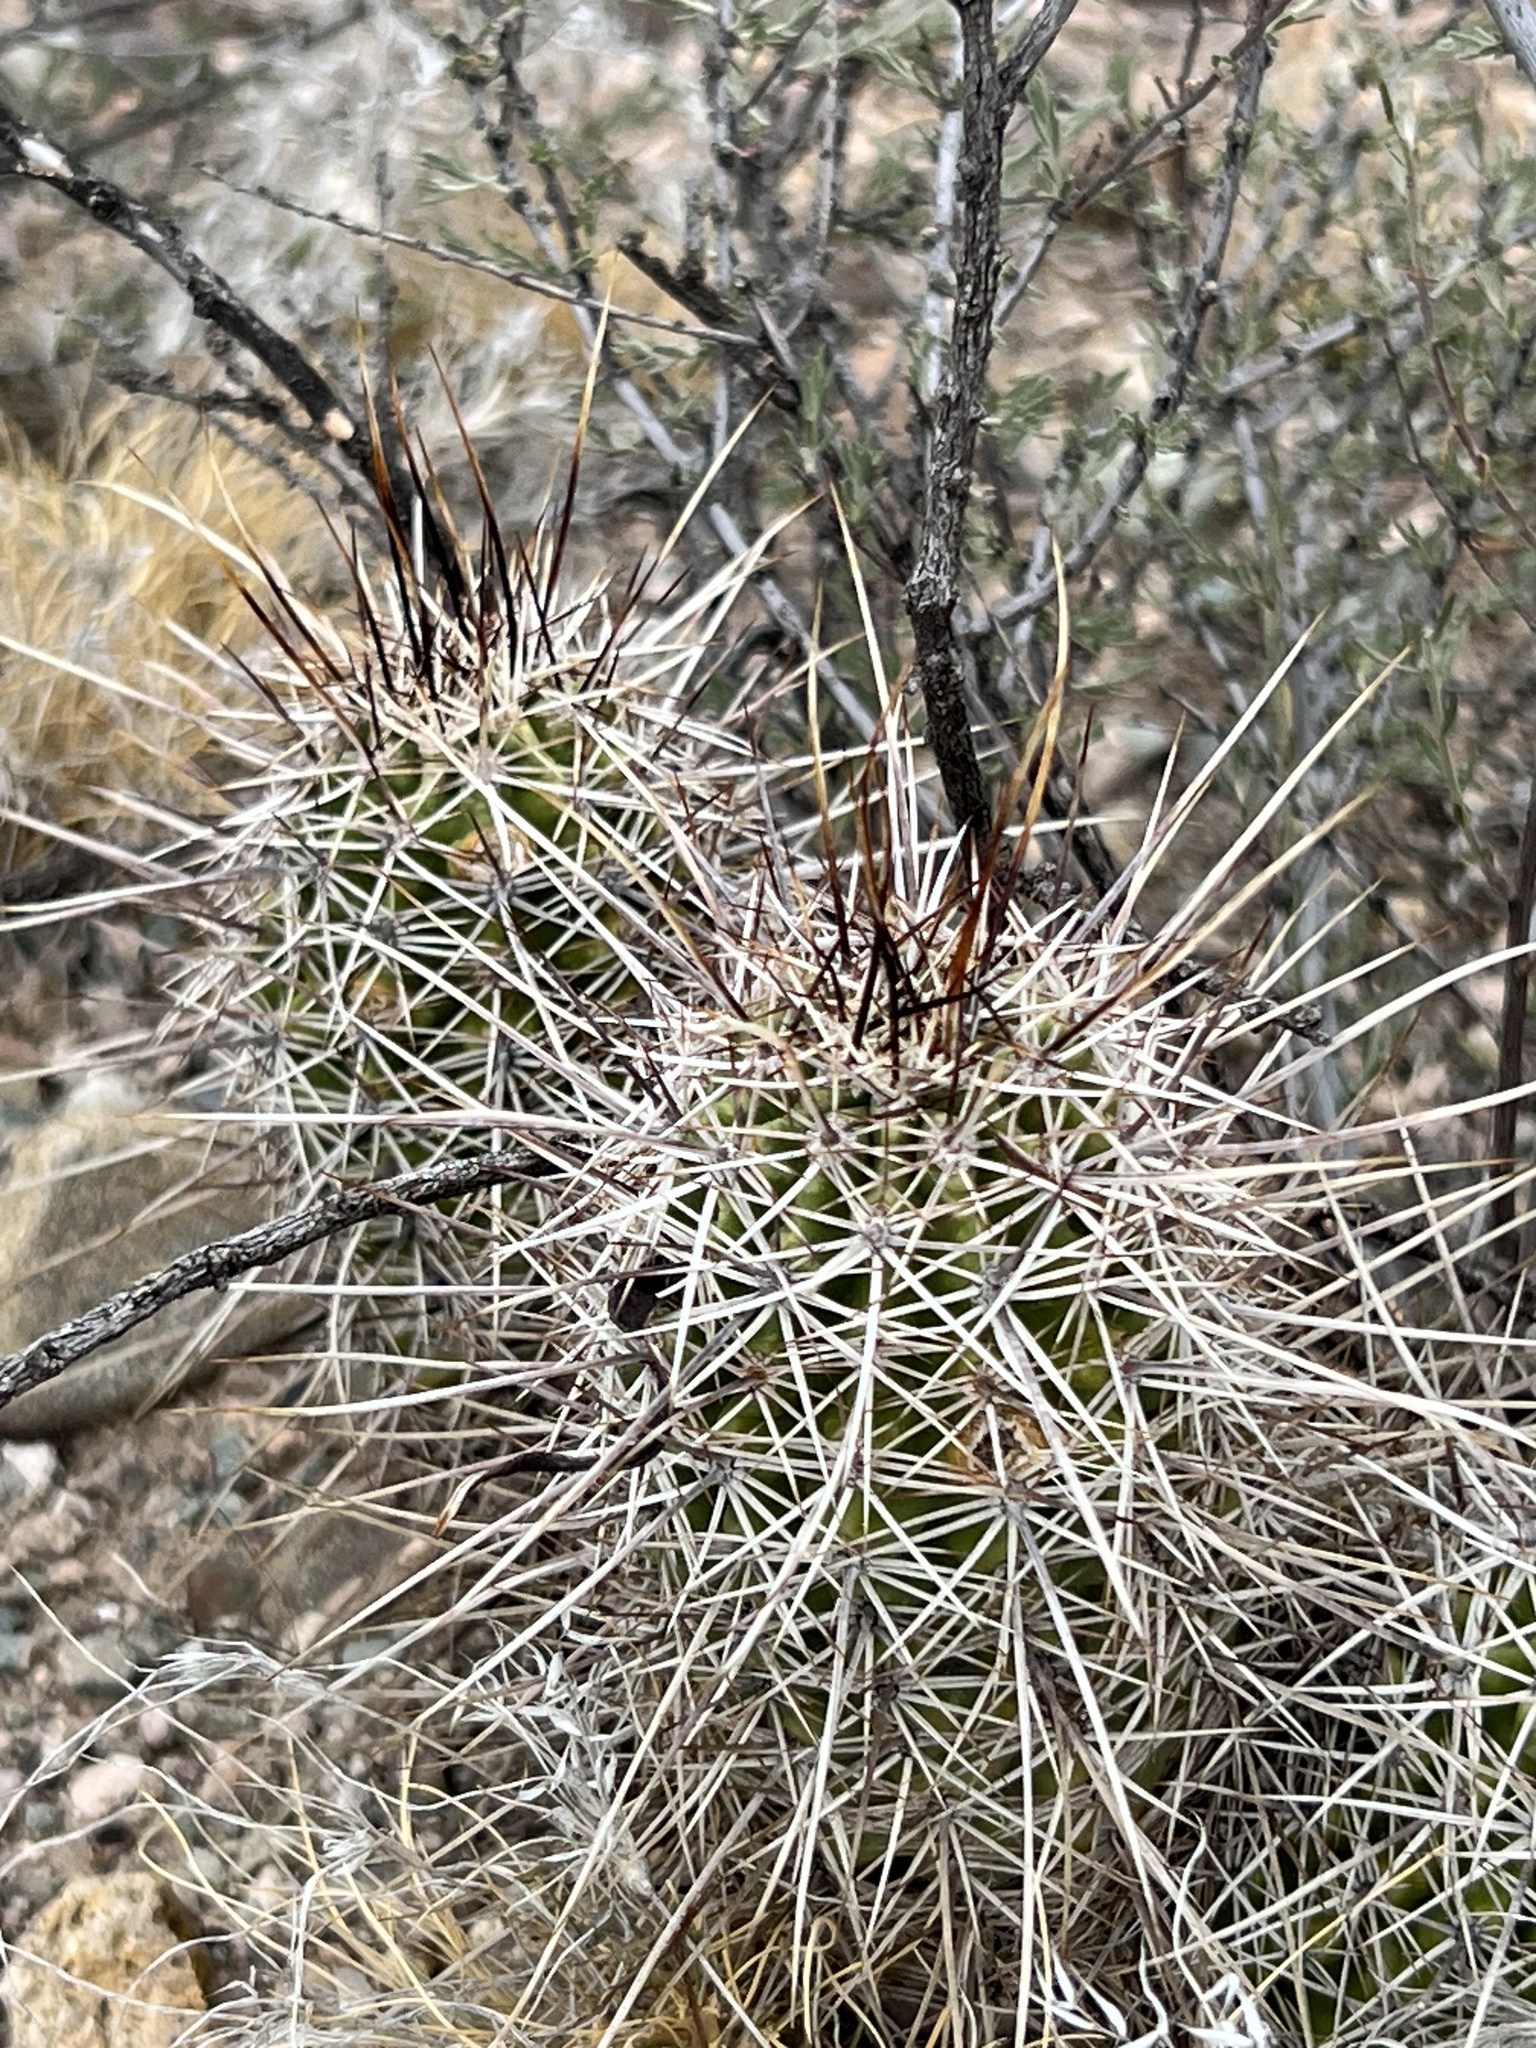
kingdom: Plantae
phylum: Tracheophyta
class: Magnoliopsida
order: Caryophyllales
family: Cactaceae
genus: Echinocereus
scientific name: Echinocereus fasciculatus
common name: Bundle hedgehog
